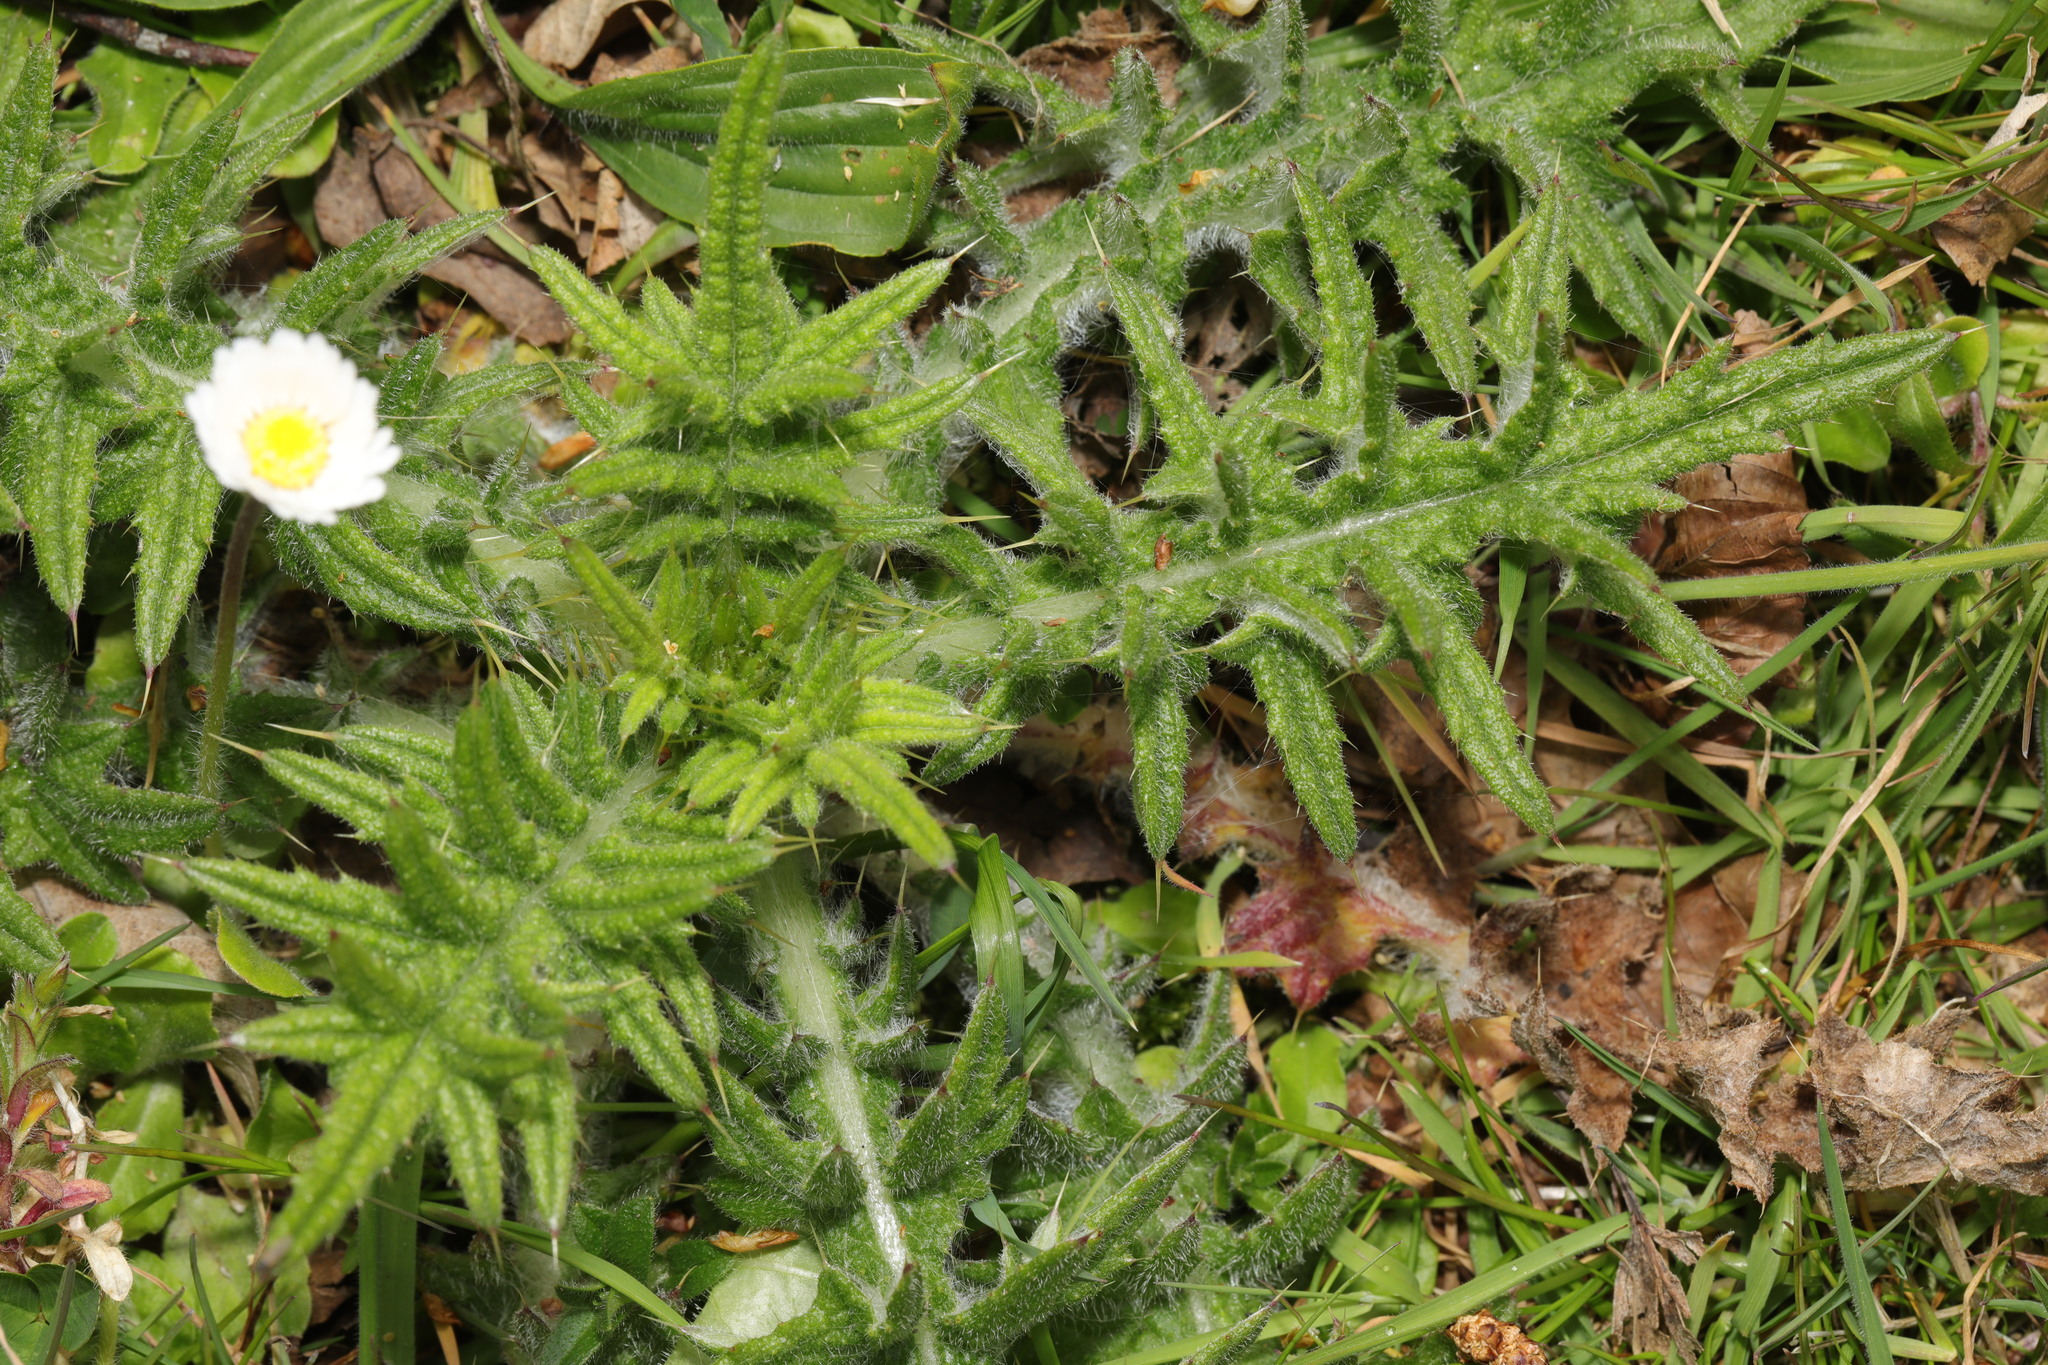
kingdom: Plantae
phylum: Tracheophyta
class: Magnoliopsida
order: Asterales
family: Asteraceae
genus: Cirsium
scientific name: Cirsium vulgare
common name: Bull thistle
